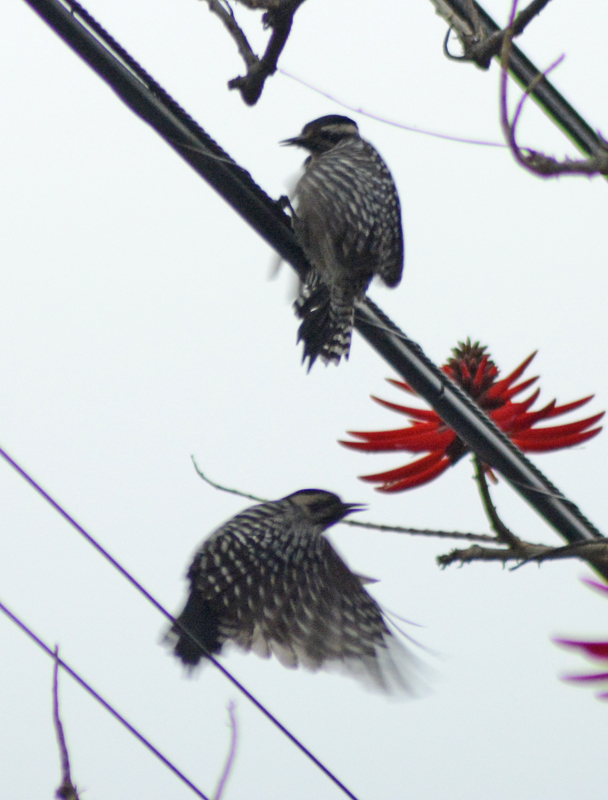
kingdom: Animalia
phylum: Chordata
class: Aves
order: Piciformes
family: Picidae
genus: Dryobates
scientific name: Dryobates scalaris
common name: Ladder-backed woodpecker
